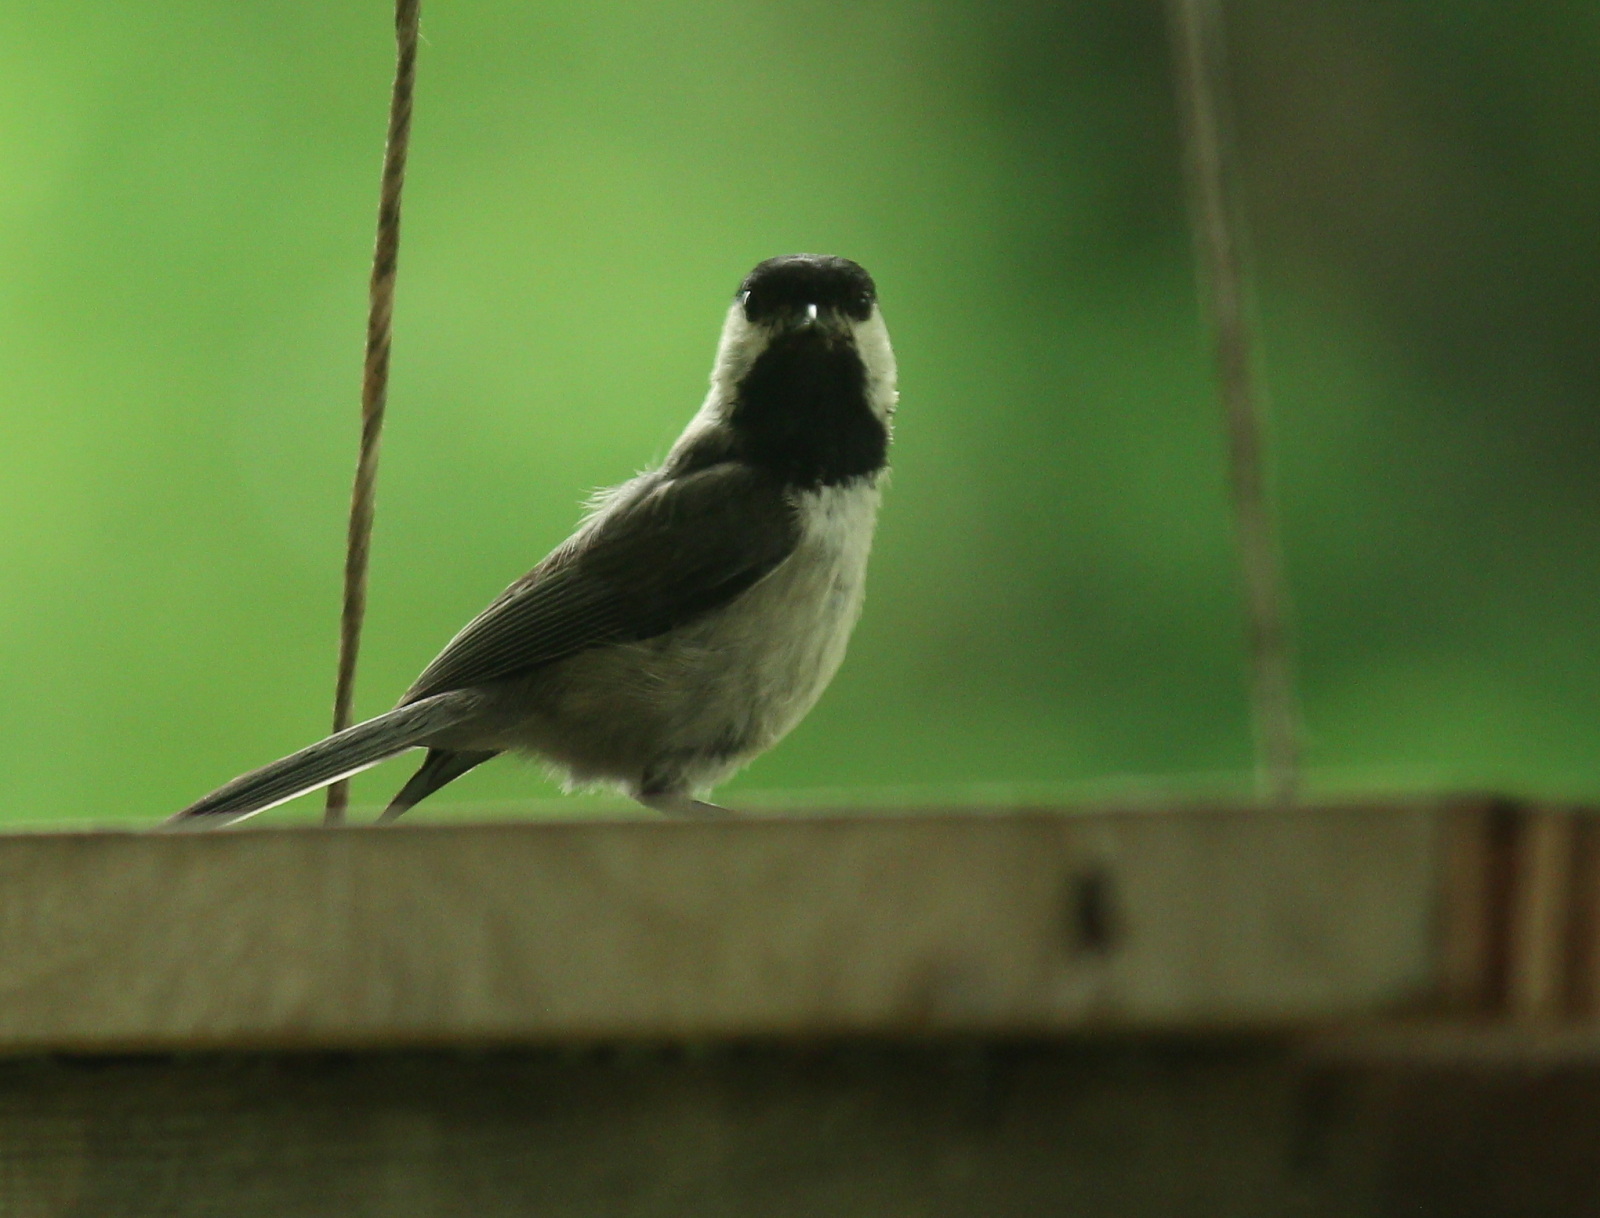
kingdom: Animalia
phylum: Chordata
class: Aves
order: Passeriformes
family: Paridae
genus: Poecile
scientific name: Poecile carolinensis
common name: Carolina chickadee
